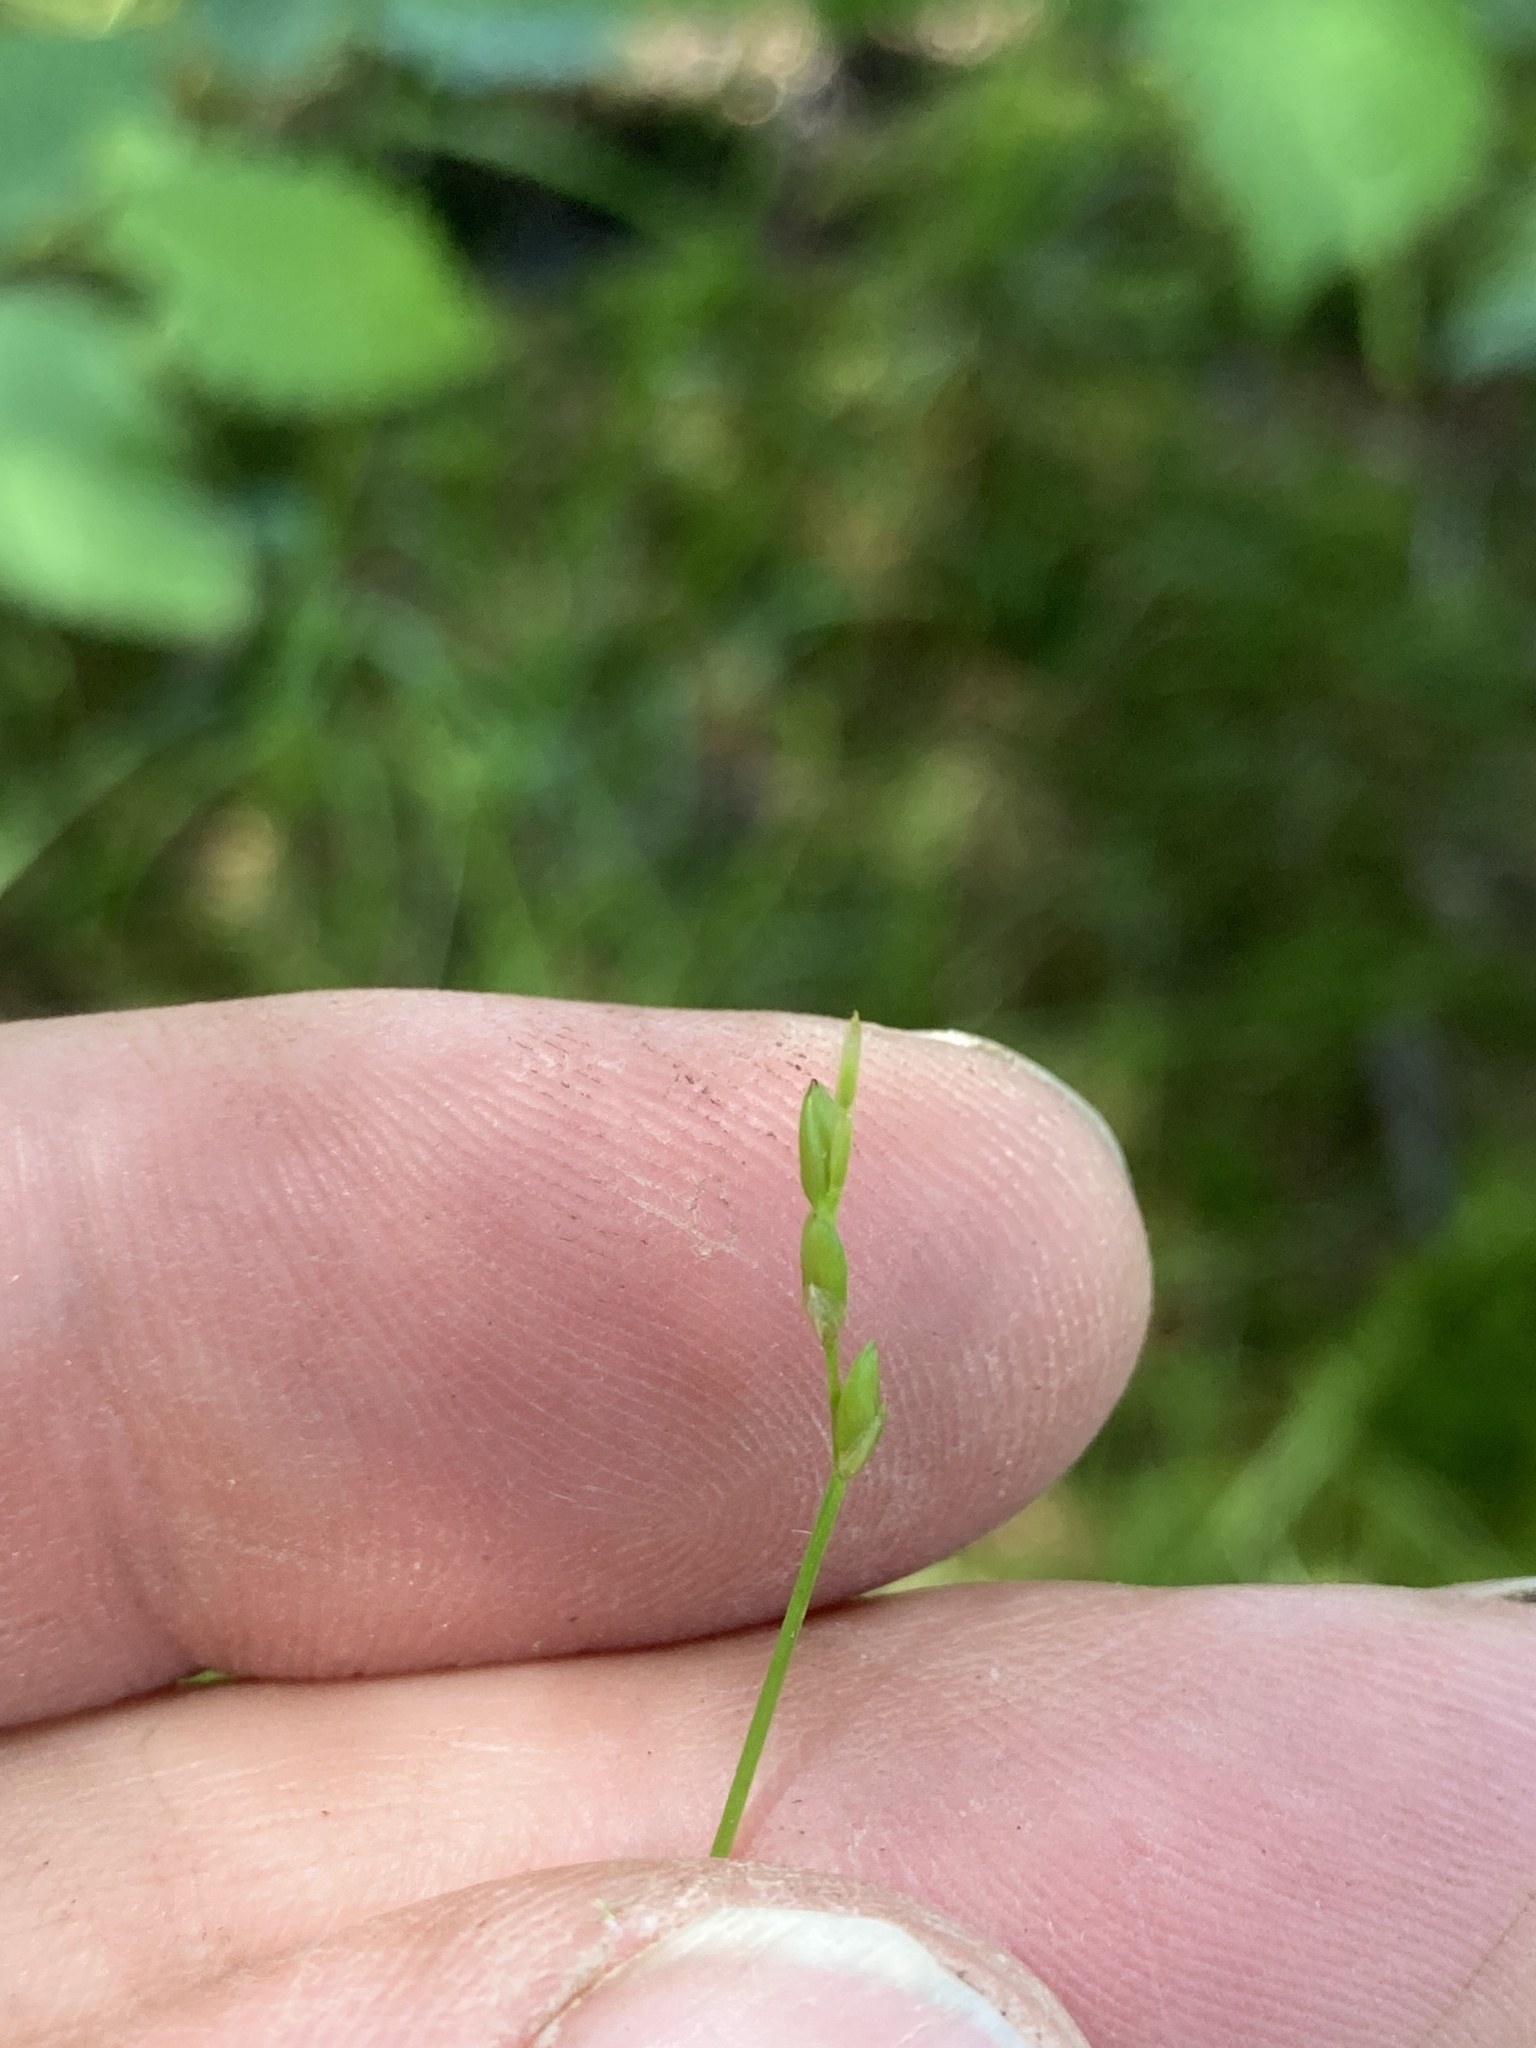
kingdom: Plantae
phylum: Tracheophyta
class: Liliopsida
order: Poales
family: Cyperaceae
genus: Carex
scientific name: Carex leptalea
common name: Bristly-stalked sedge
